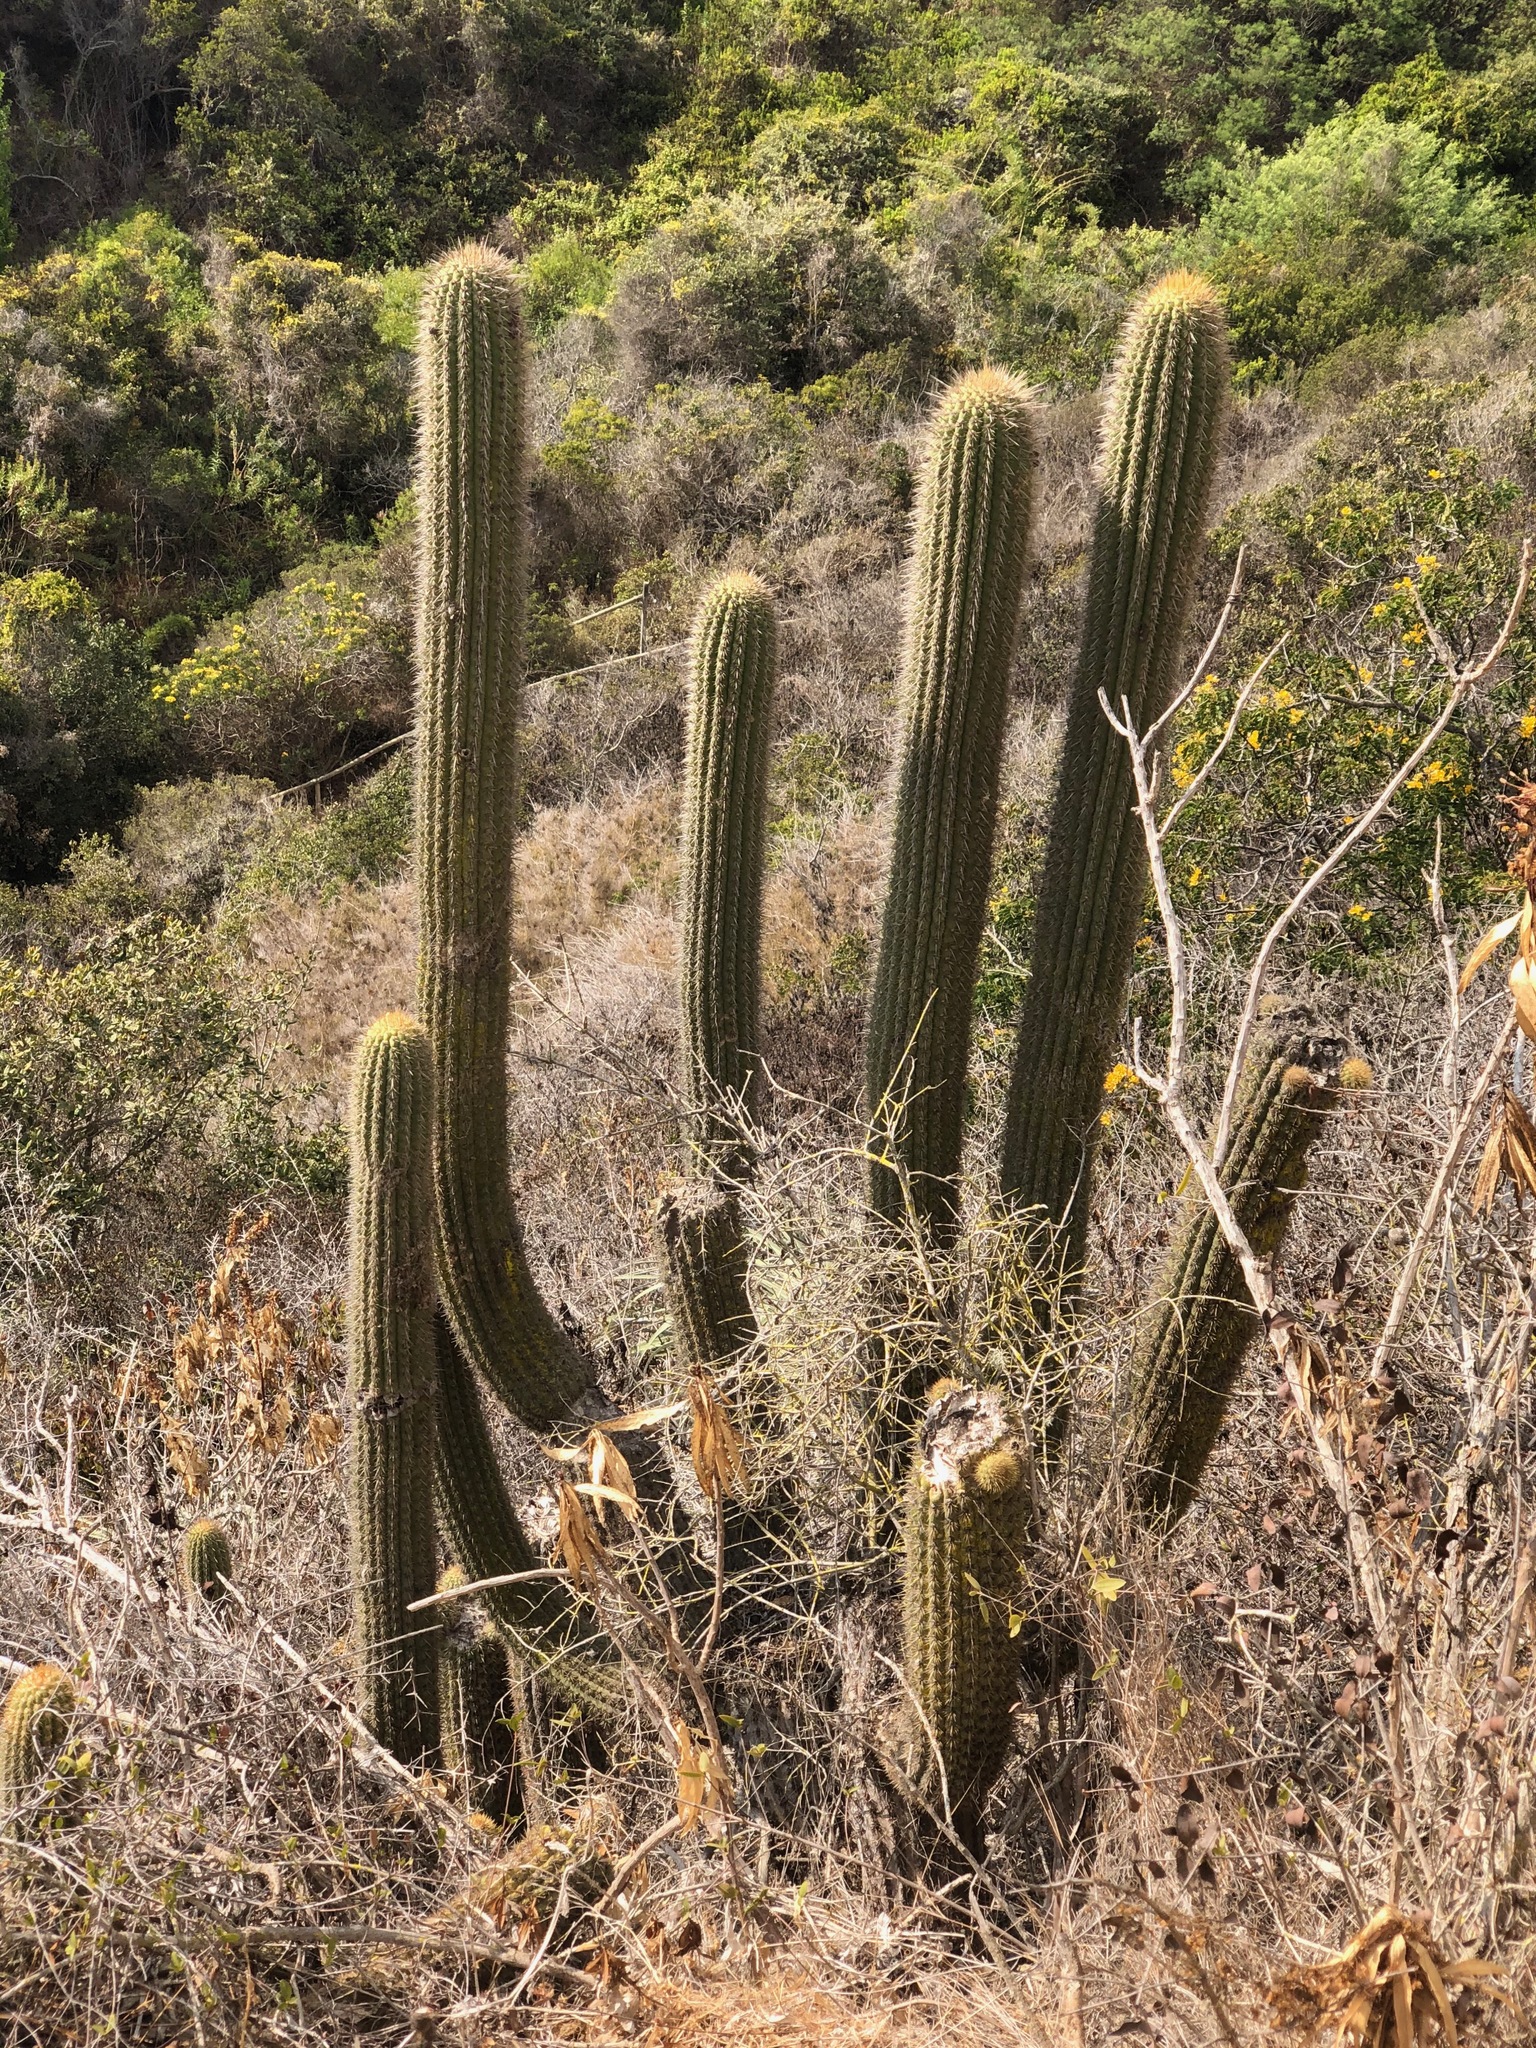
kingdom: Plantae
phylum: Tracheophyta
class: Magnoliopsida
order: Caryophyllales
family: Cactaceae
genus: Leucostele
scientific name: Leucostele litoralis
